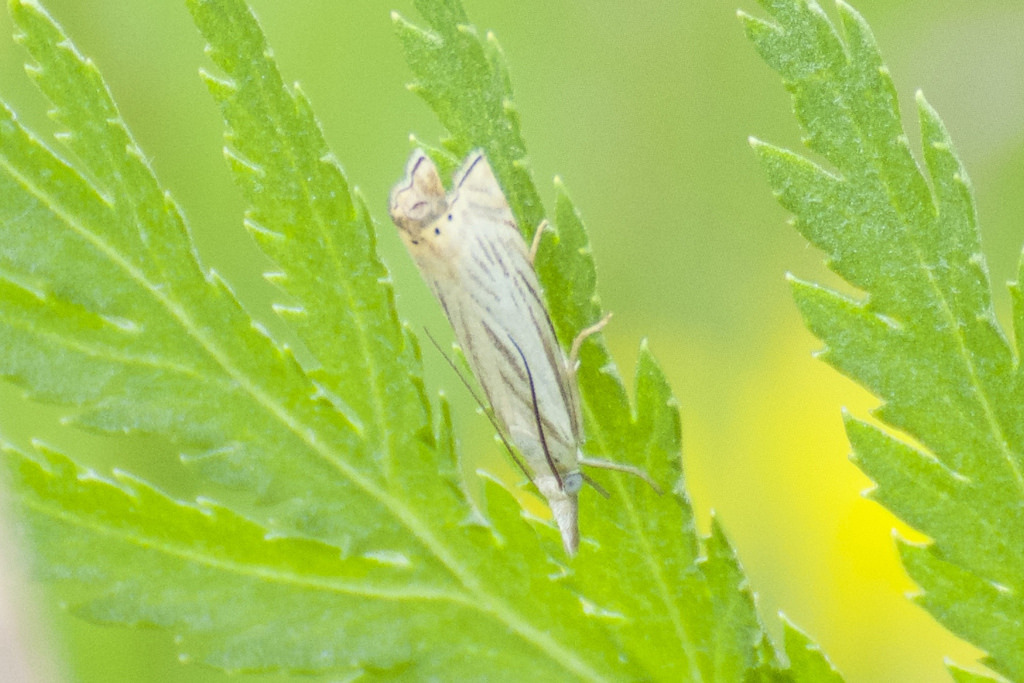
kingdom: Animalia
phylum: Arthropoda
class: Insecta
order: Lepidoptera
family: Crambidae
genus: Chrysoteuchia
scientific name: Chrysoteuchia topiarius
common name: Topiary grass-veneer
